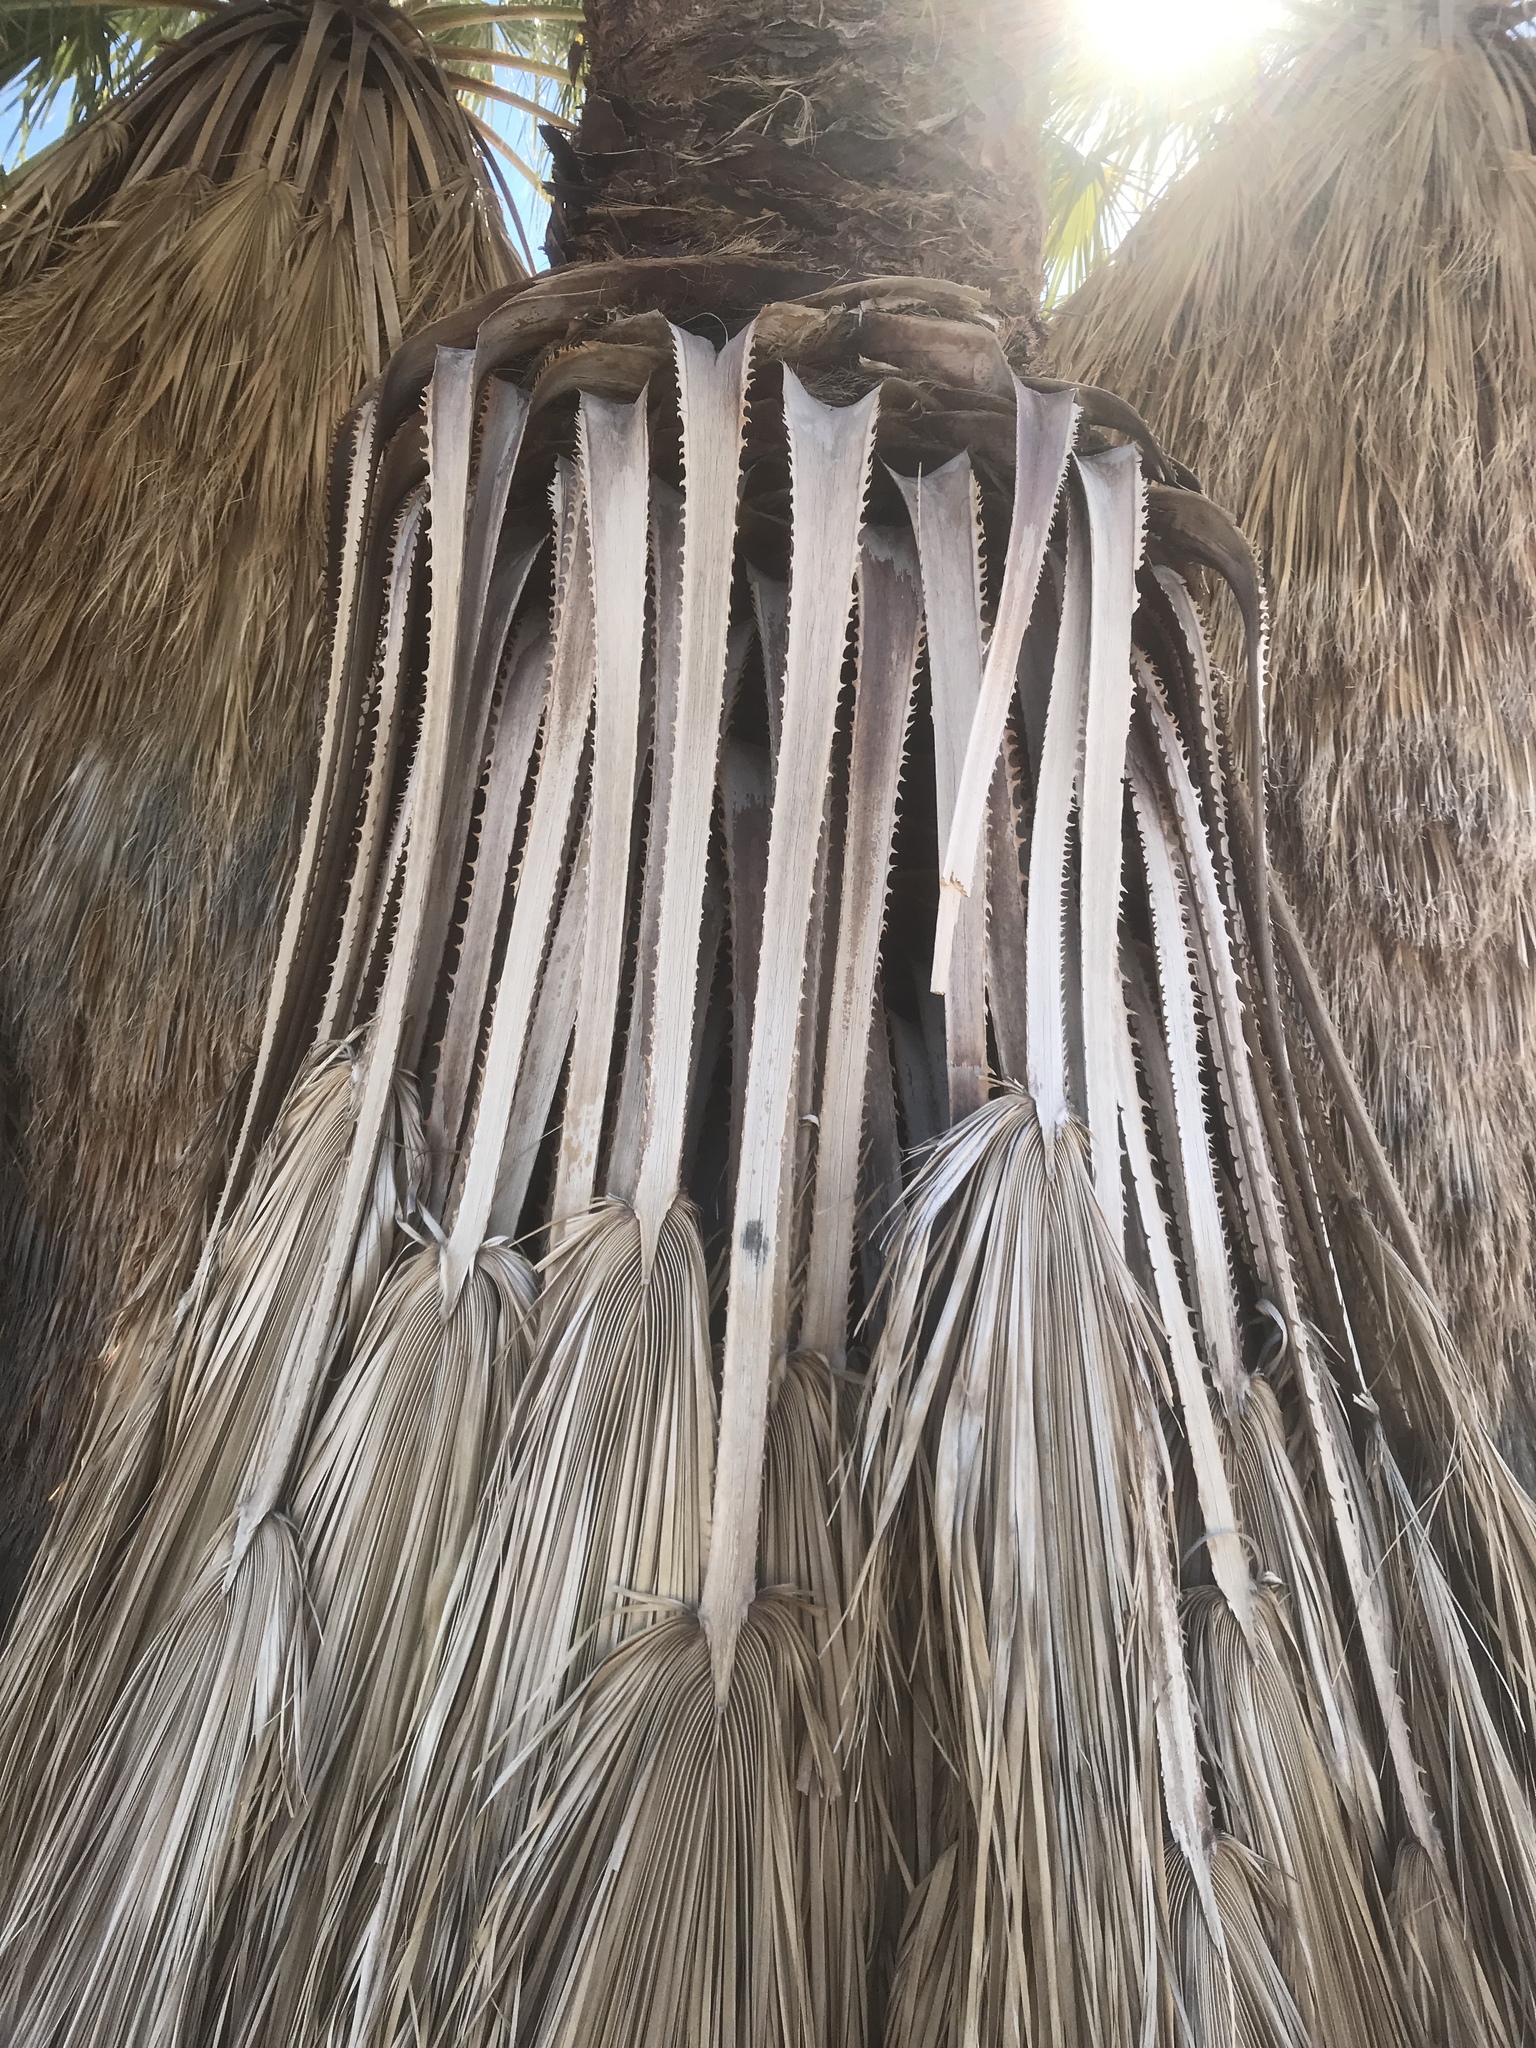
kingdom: Plantae
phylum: Tracheophyta
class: Liliopsida
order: Arecales
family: Arecaceae
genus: Washingtonia
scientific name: Washingtonia filifera
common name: California fan palm
